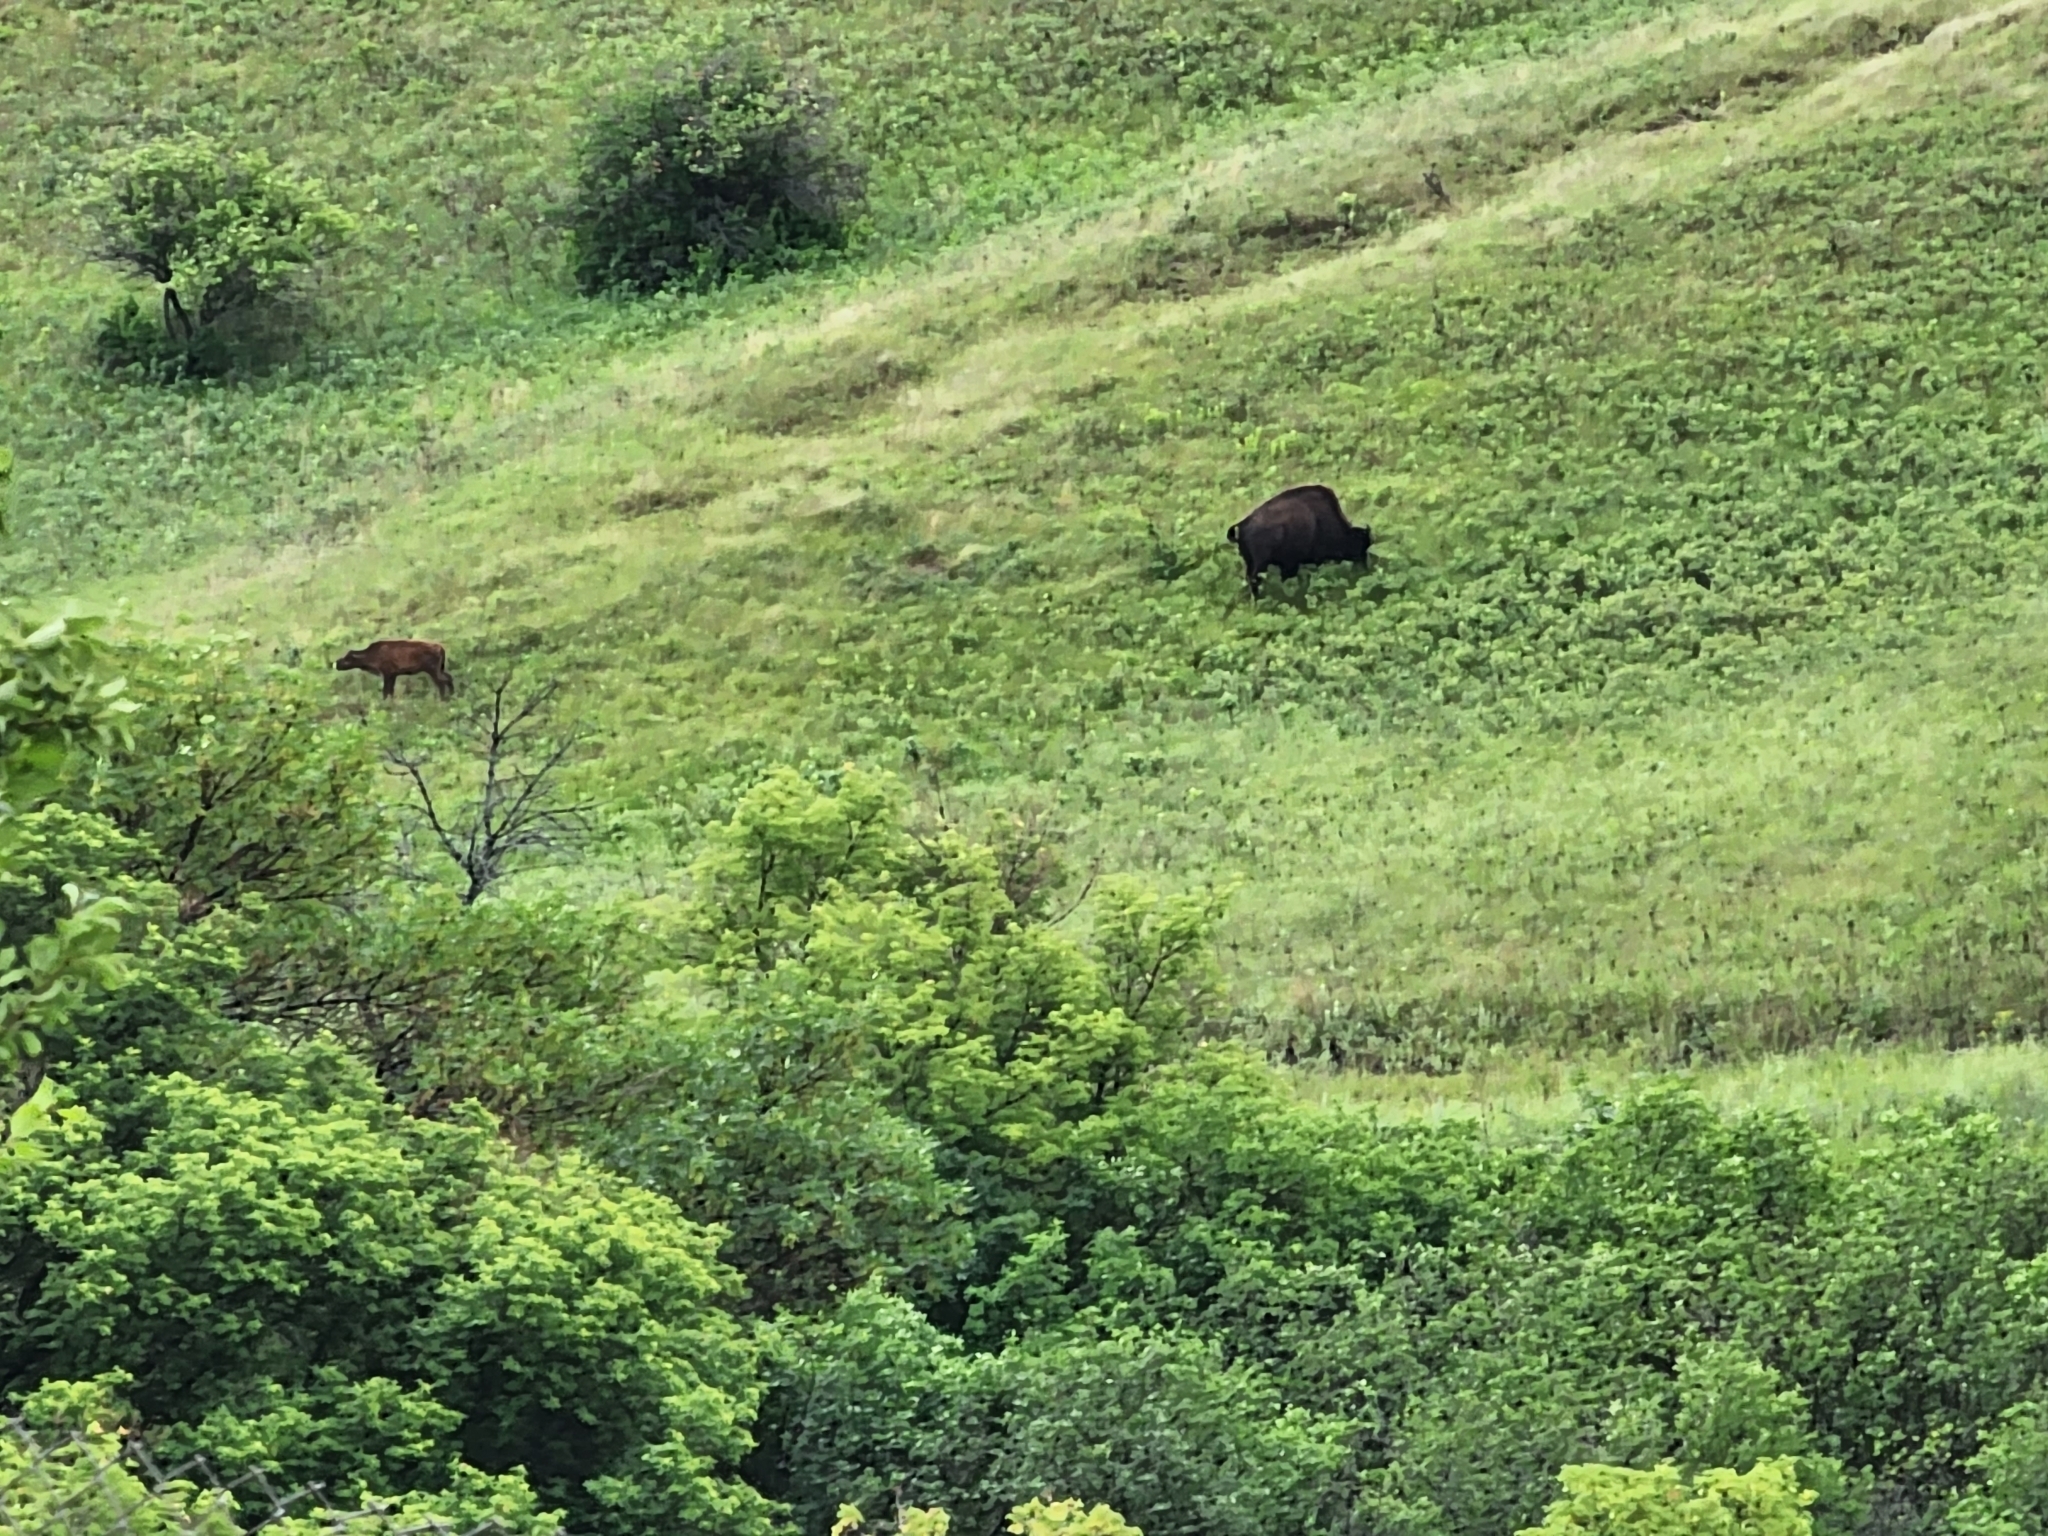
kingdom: Animalia
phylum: Chordata
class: Mammalia
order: Artiodactyla
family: Bovidae
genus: Bison
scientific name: Bison bison
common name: American bison
